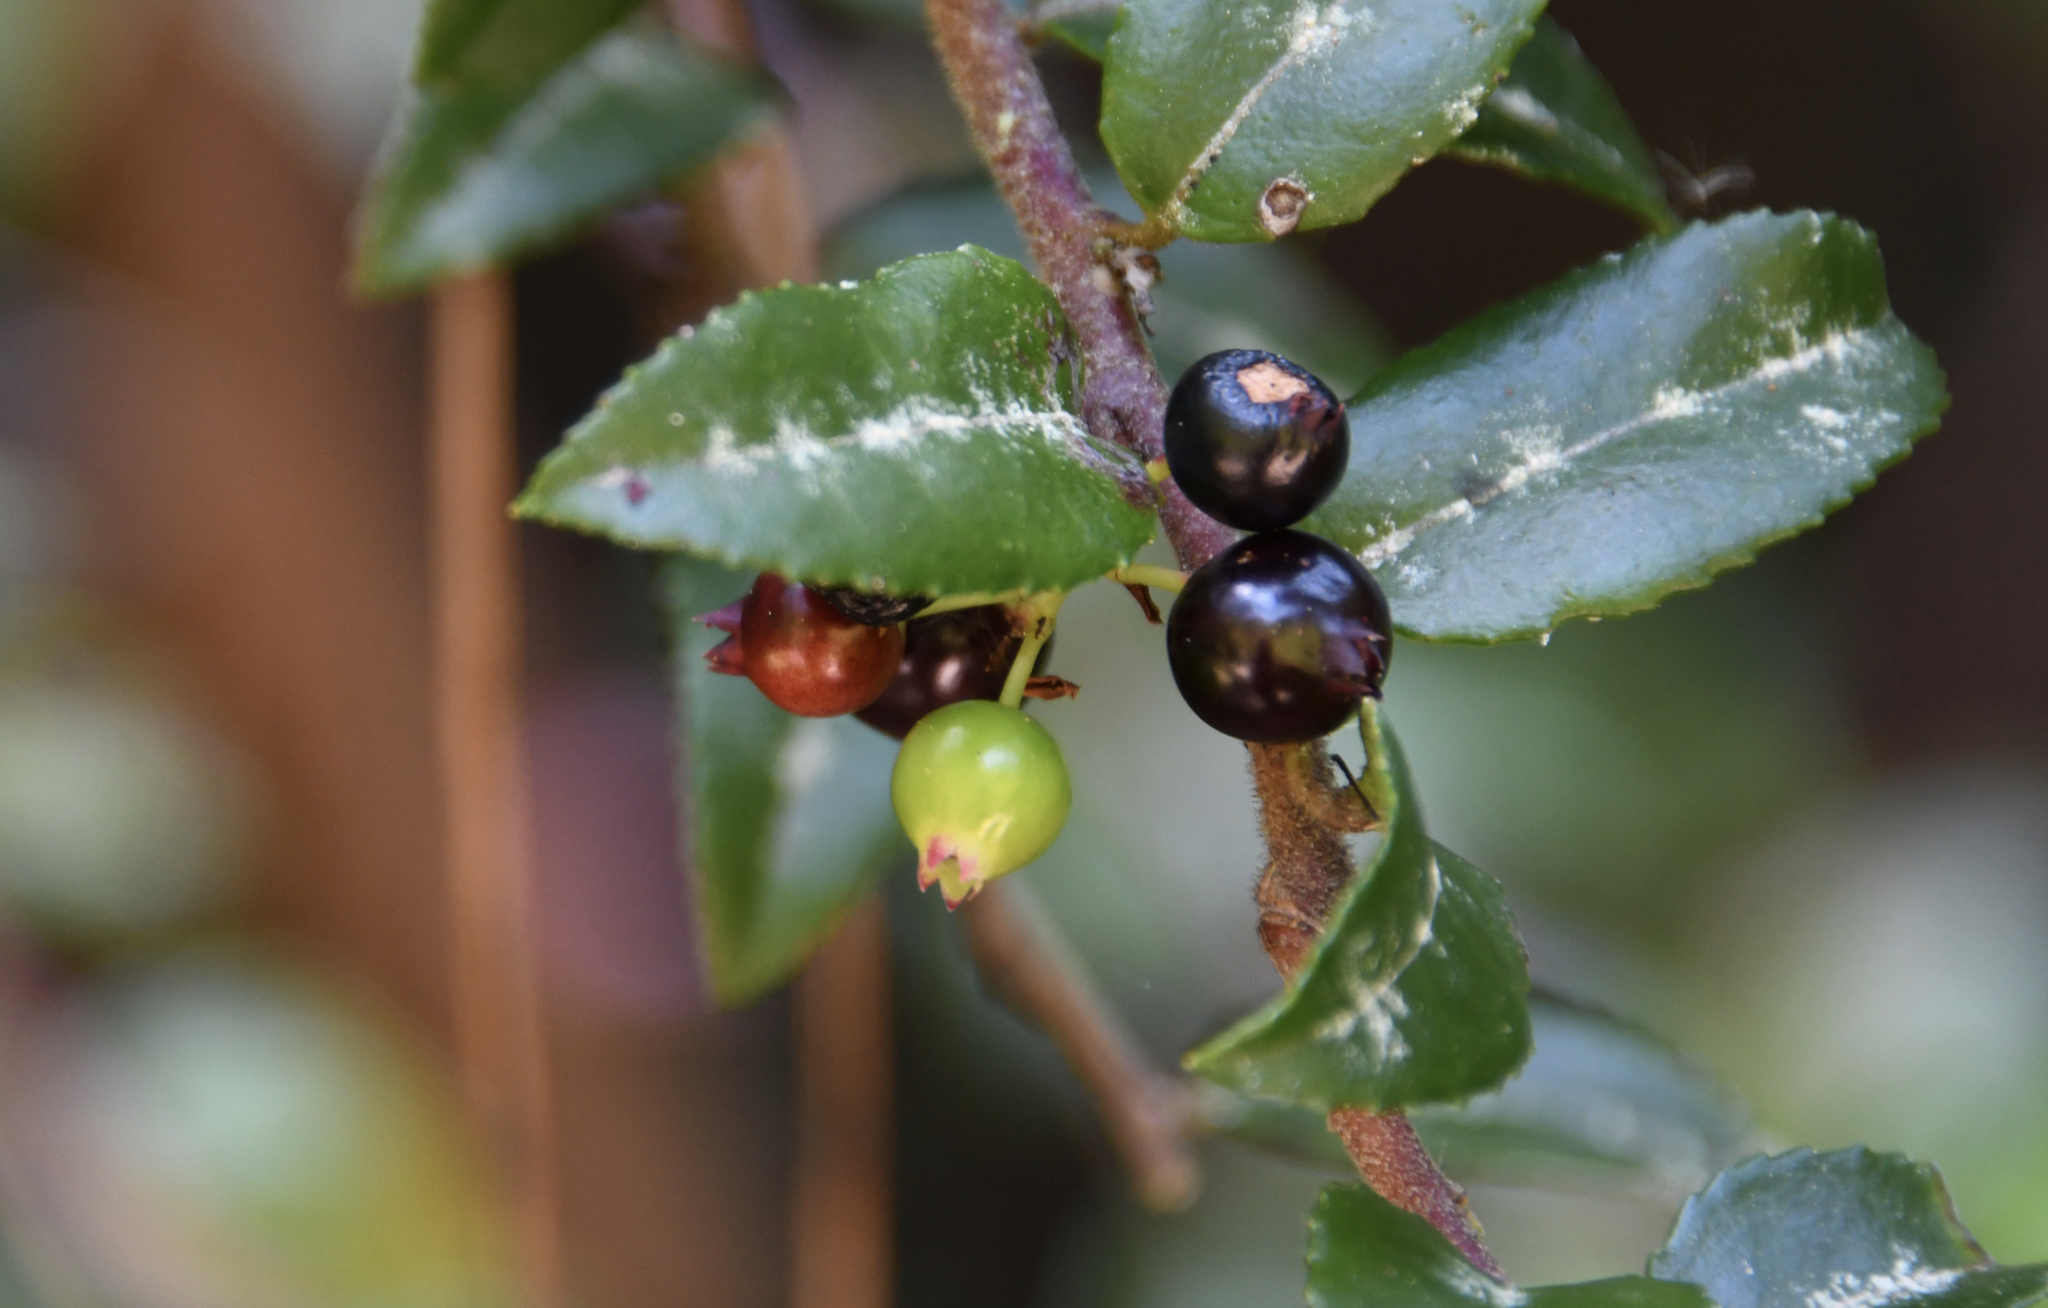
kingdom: Plantae
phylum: Tracheophyta
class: Magnoliopsida
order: Ericales
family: Ericaceae
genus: Vaccinium
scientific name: Vaccinium ovatum
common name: California-huckleberry
